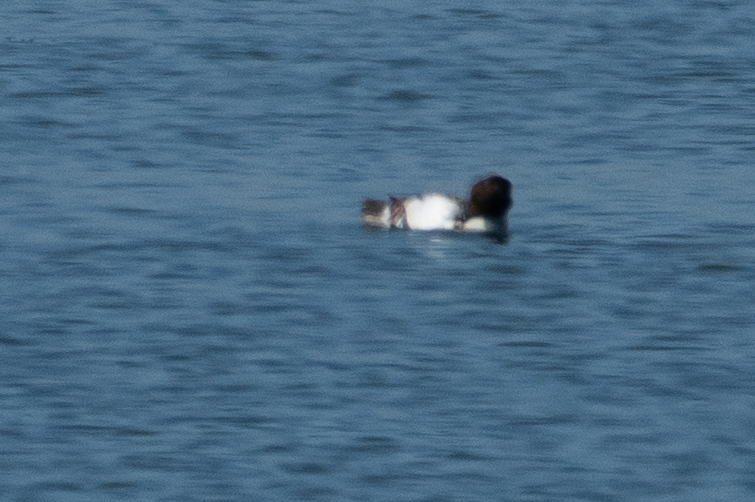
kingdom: Animalia
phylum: Chordata
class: Aves
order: Anseriformes
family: Anatidae
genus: Bucephala
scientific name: Bucephala clangula
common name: Common goldeneye
